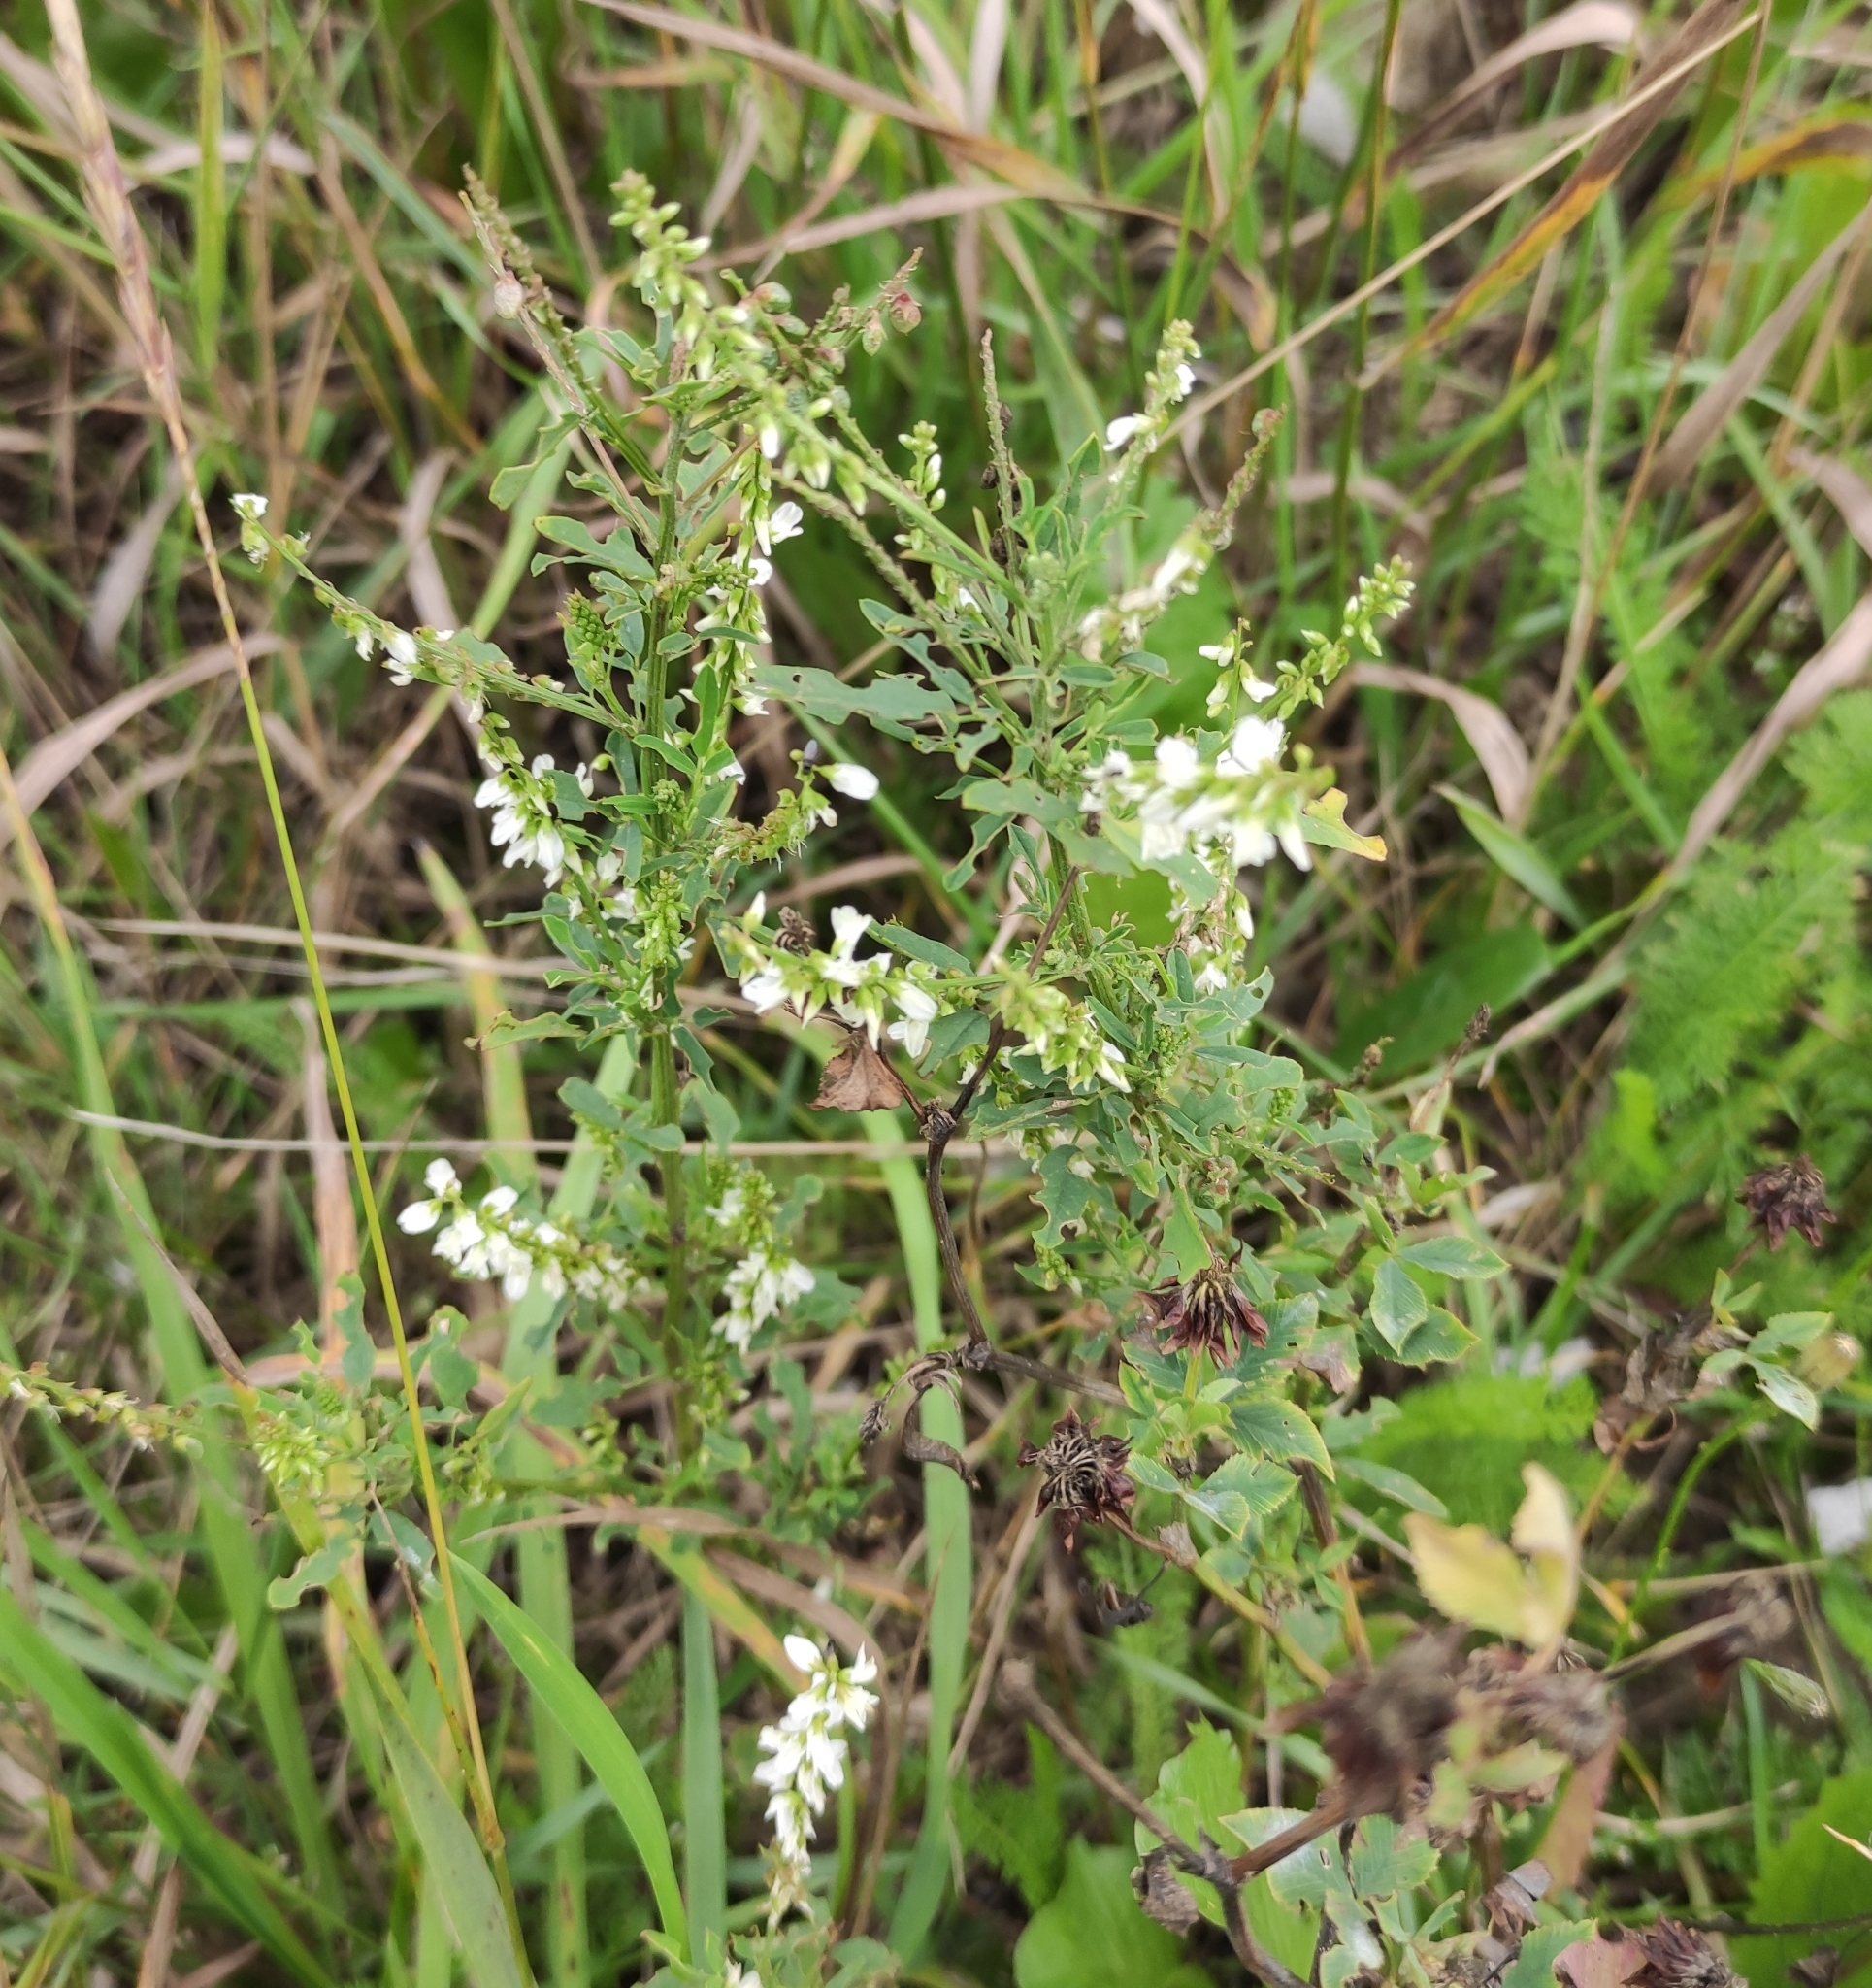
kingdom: Plantae
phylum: Tracheophyta
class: Magnoliopsida
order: Fabales
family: Fabaceae
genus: Melilotus
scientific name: Melilotus albus
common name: White melilot
